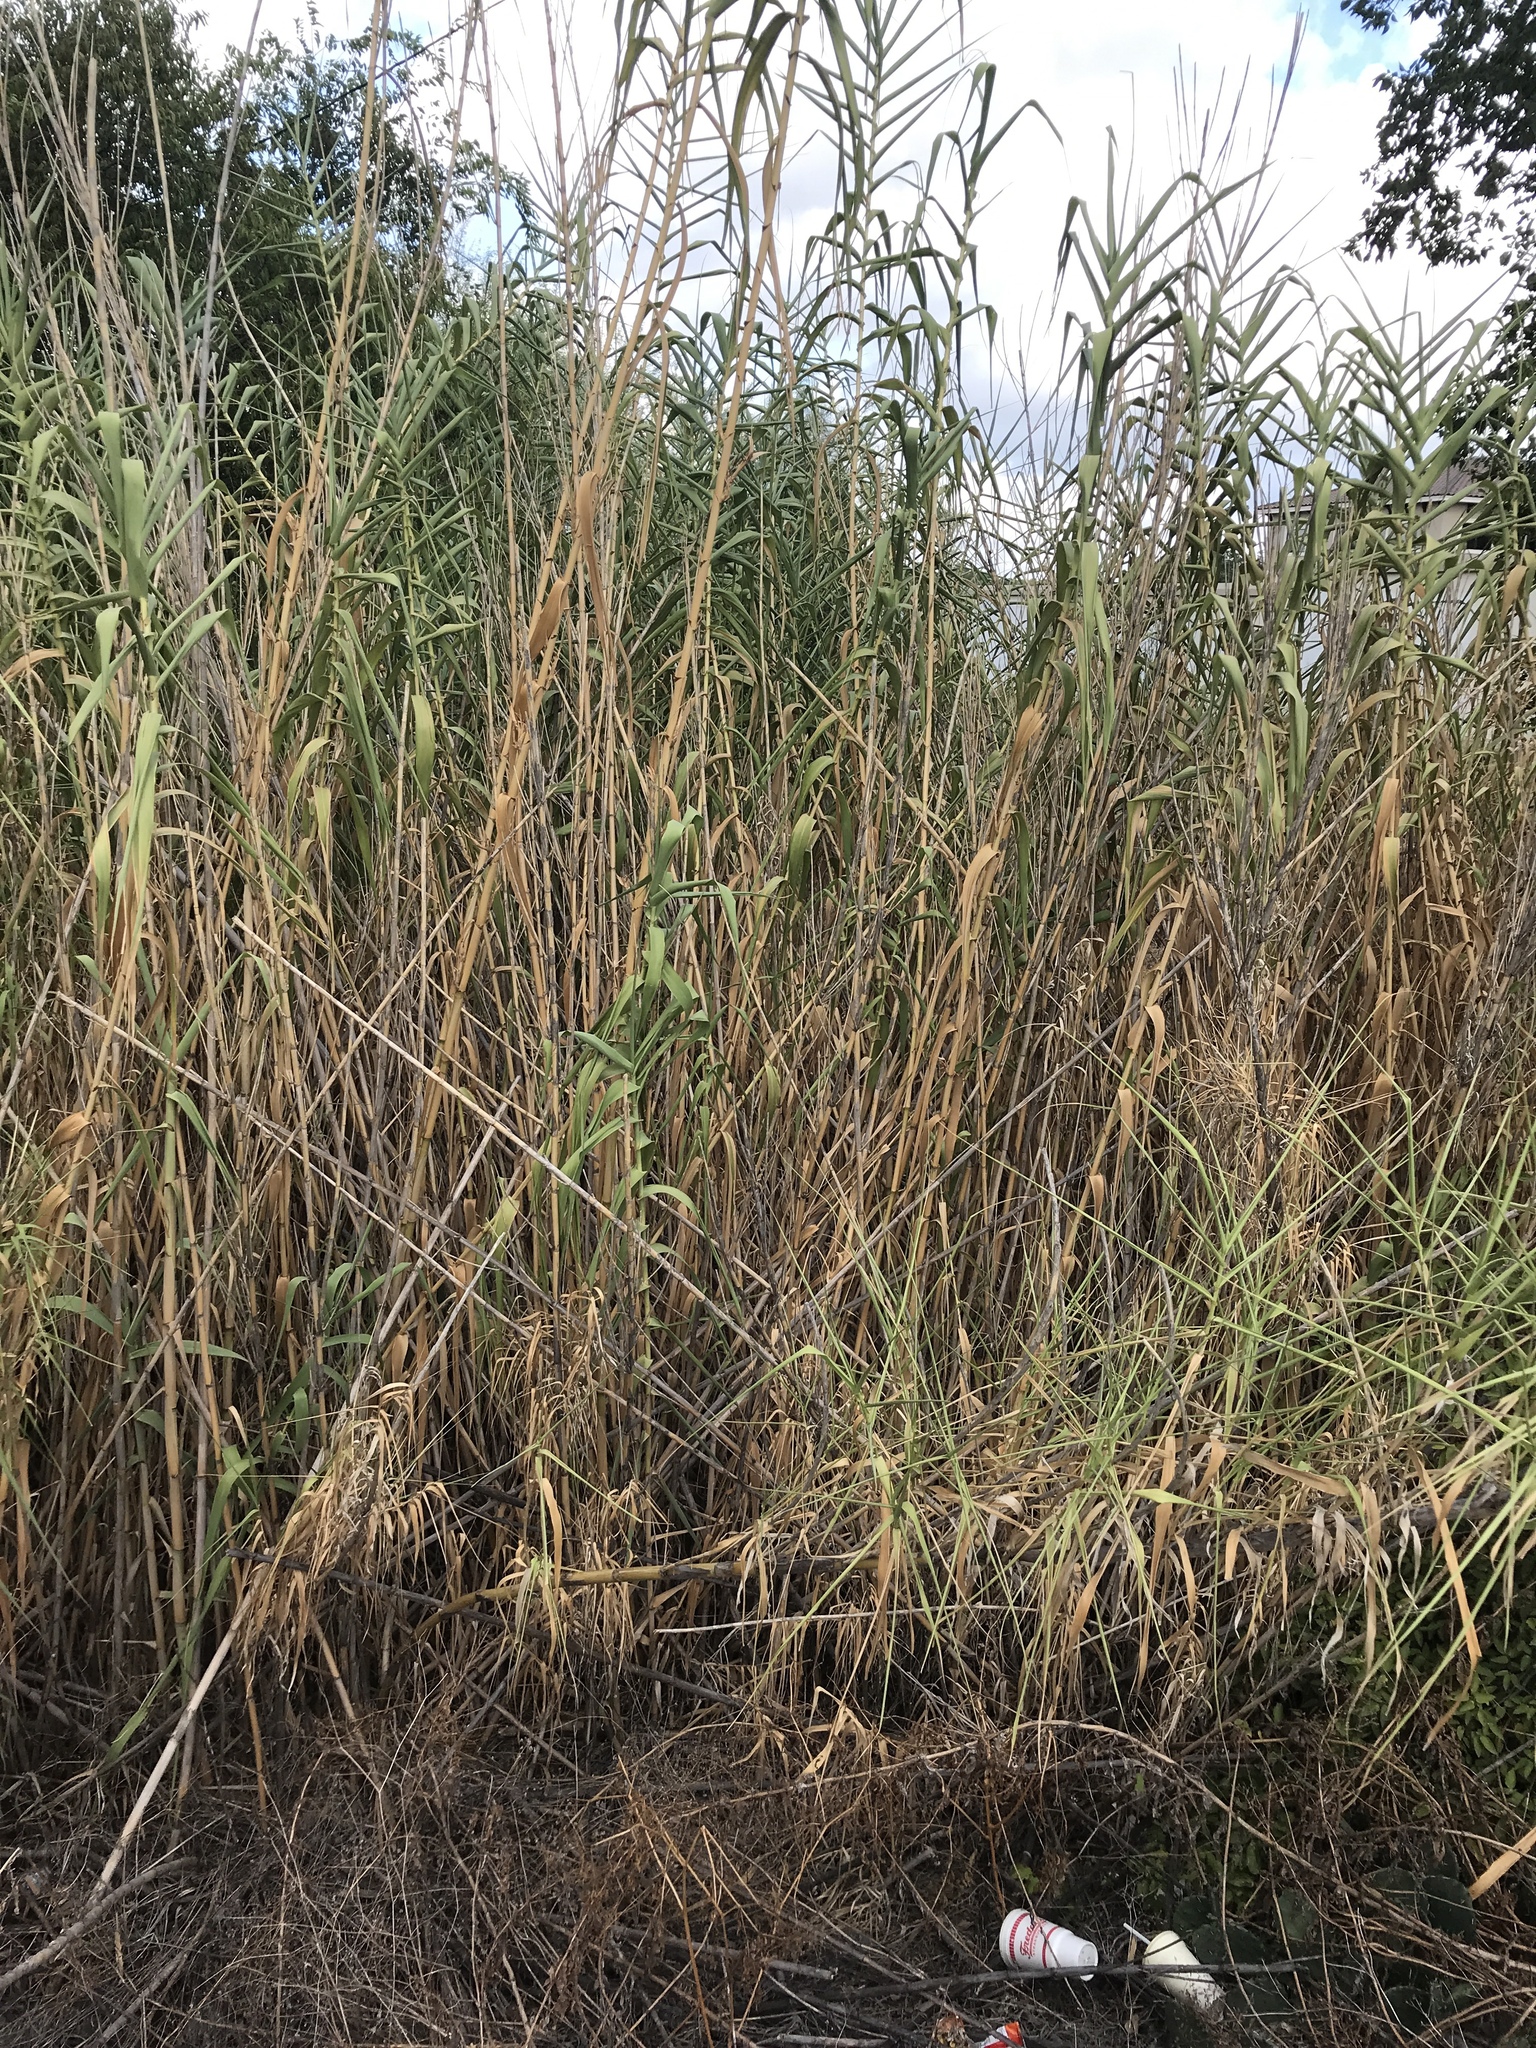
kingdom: Plantae
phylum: Tracheophyta
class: Liliopsida
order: Poales
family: Poaceae
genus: Arundo
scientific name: Arundo donax
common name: Giant reed
